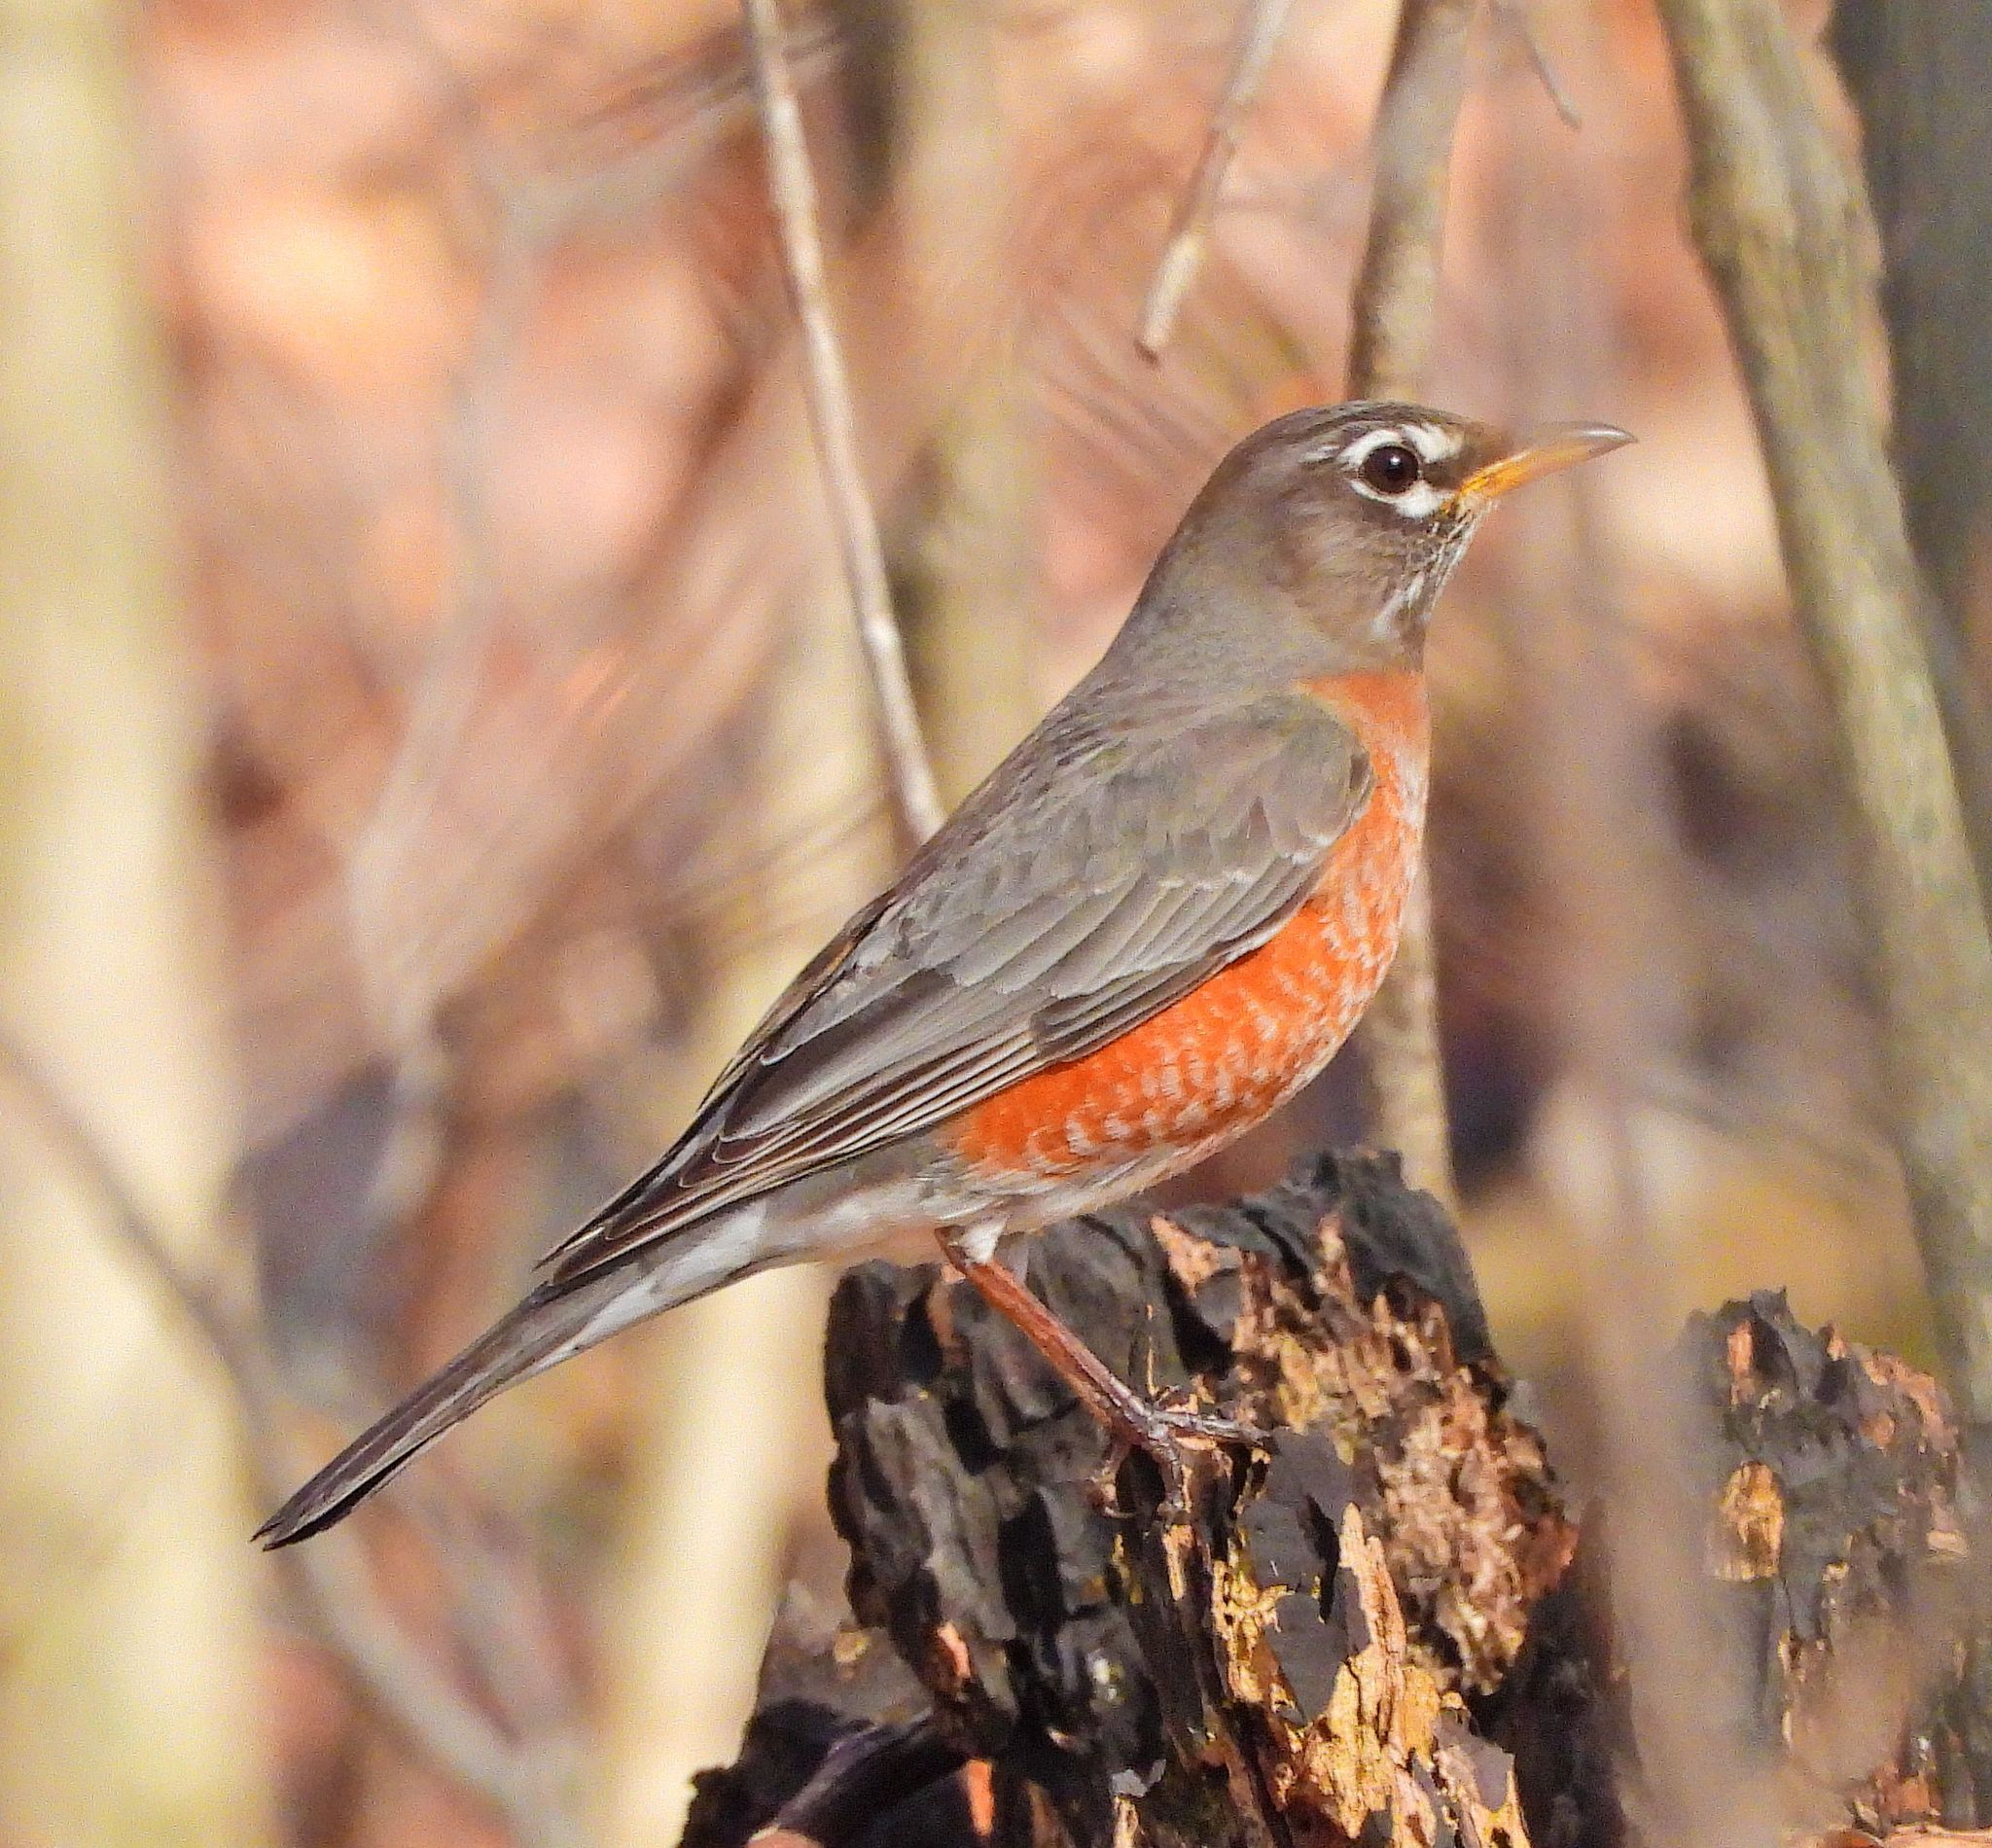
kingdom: Animalia
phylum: Chordata
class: Aves
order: Passeriformes
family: Turdidae
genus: Turdus
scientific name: Turdus migratorius
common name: American robin
